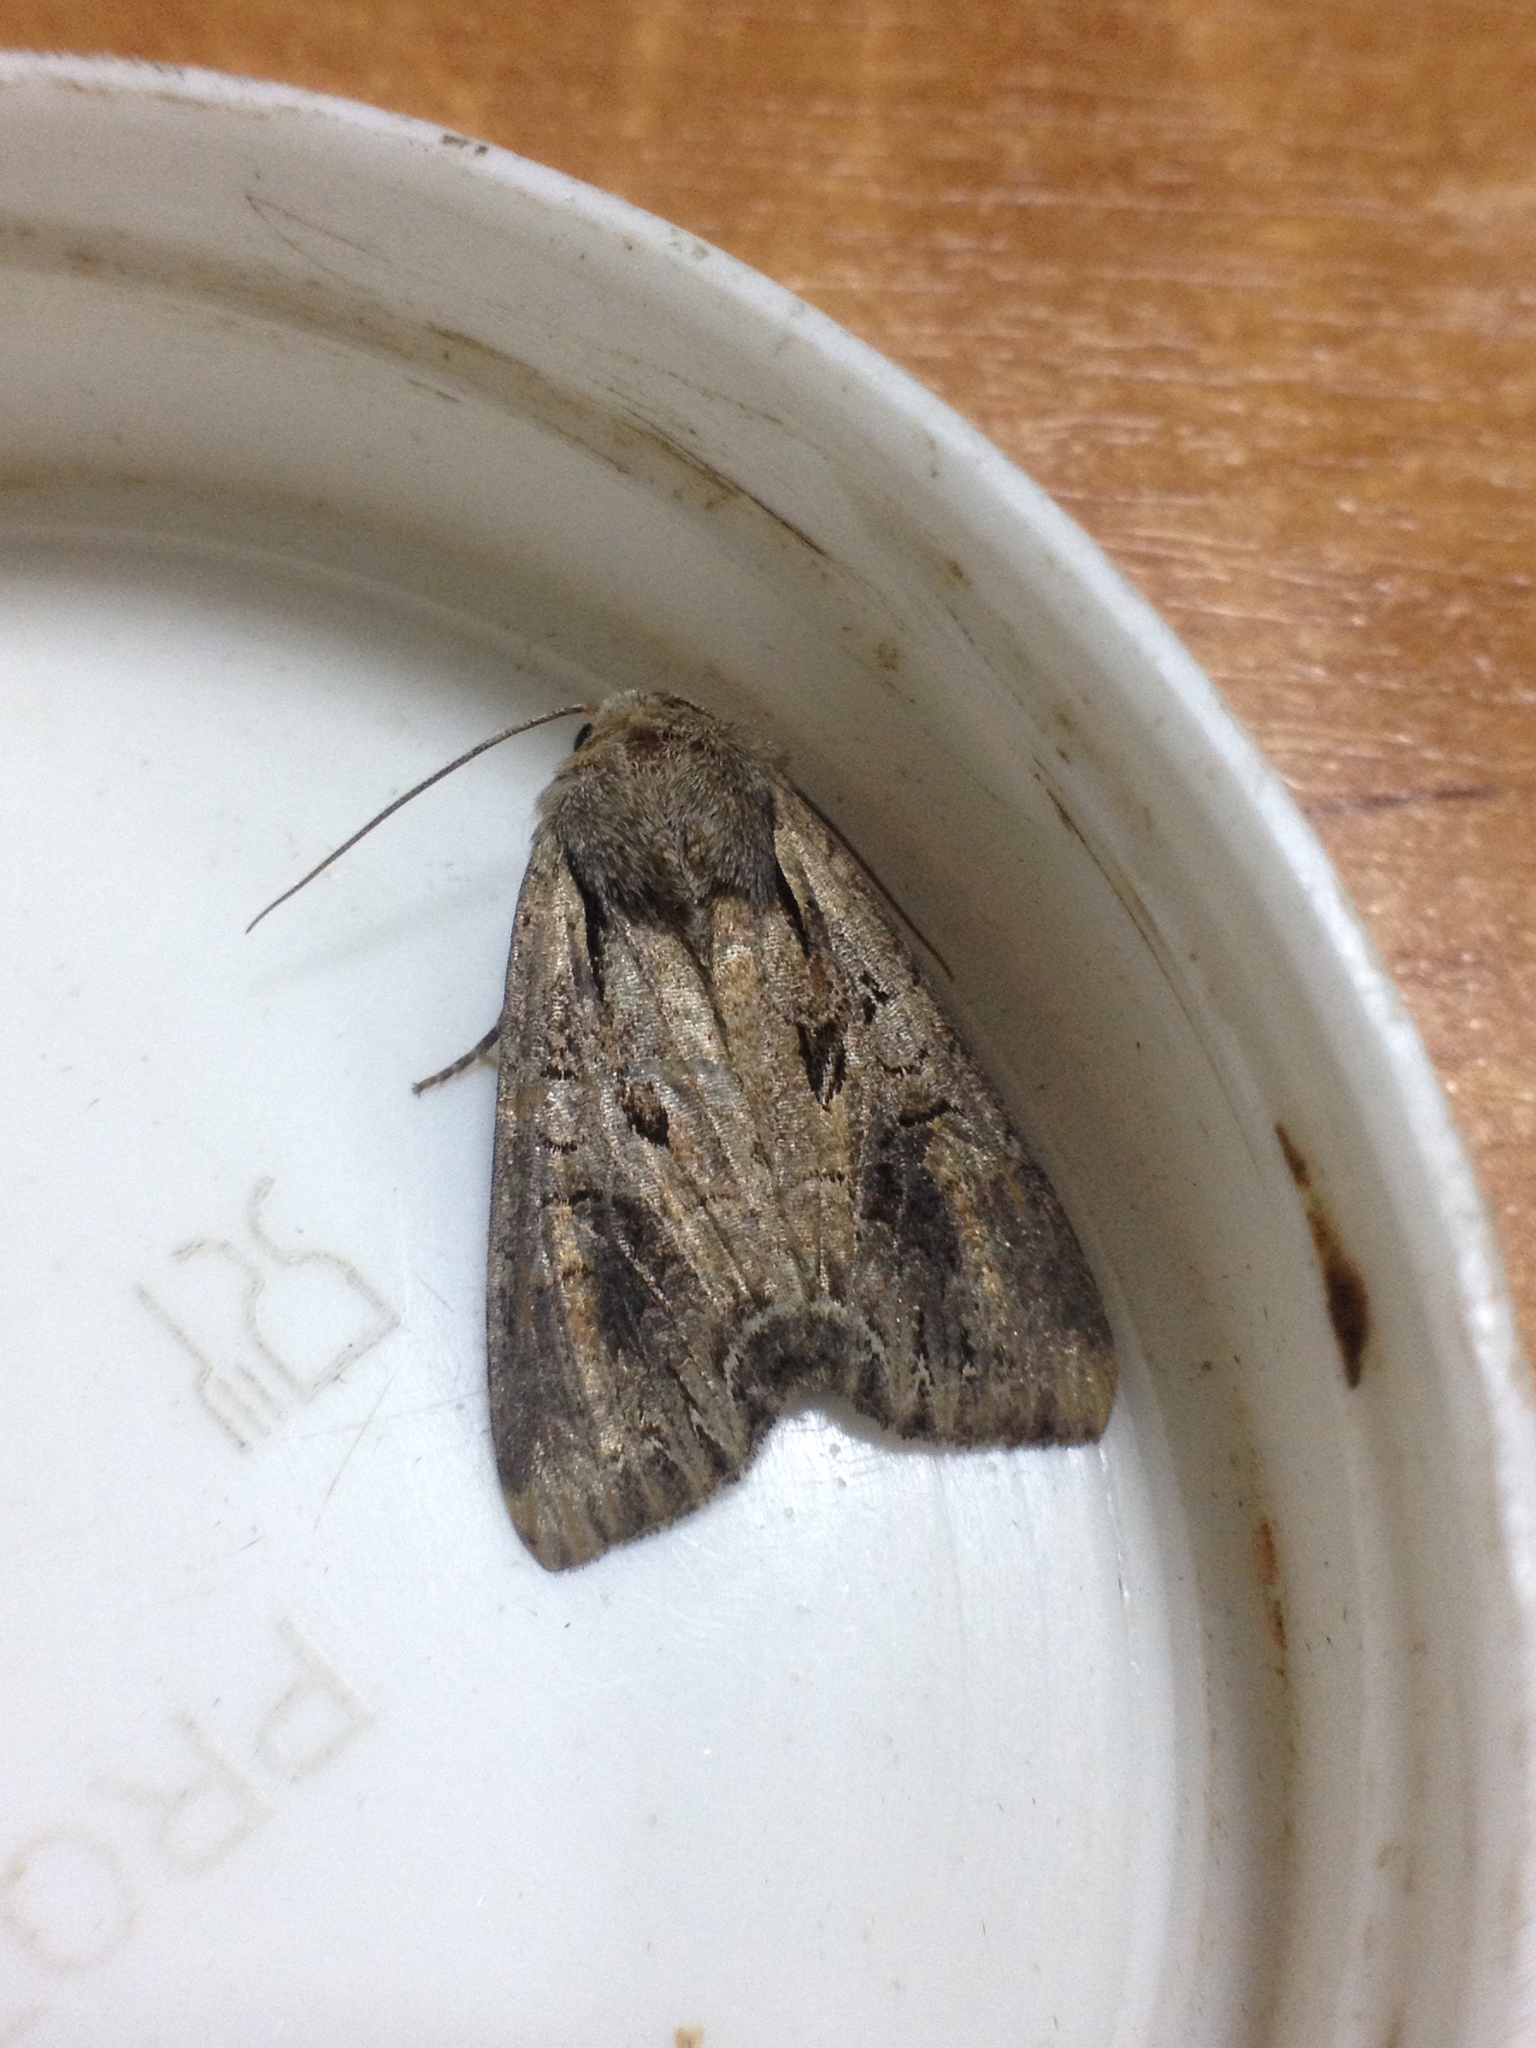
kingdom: Animalia
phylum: Arthropoda
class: Insecta
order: Lepidoptera
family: Noctuidae
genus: Lacanobia
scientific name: Lacanobia suasa
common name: Dog's tooth
